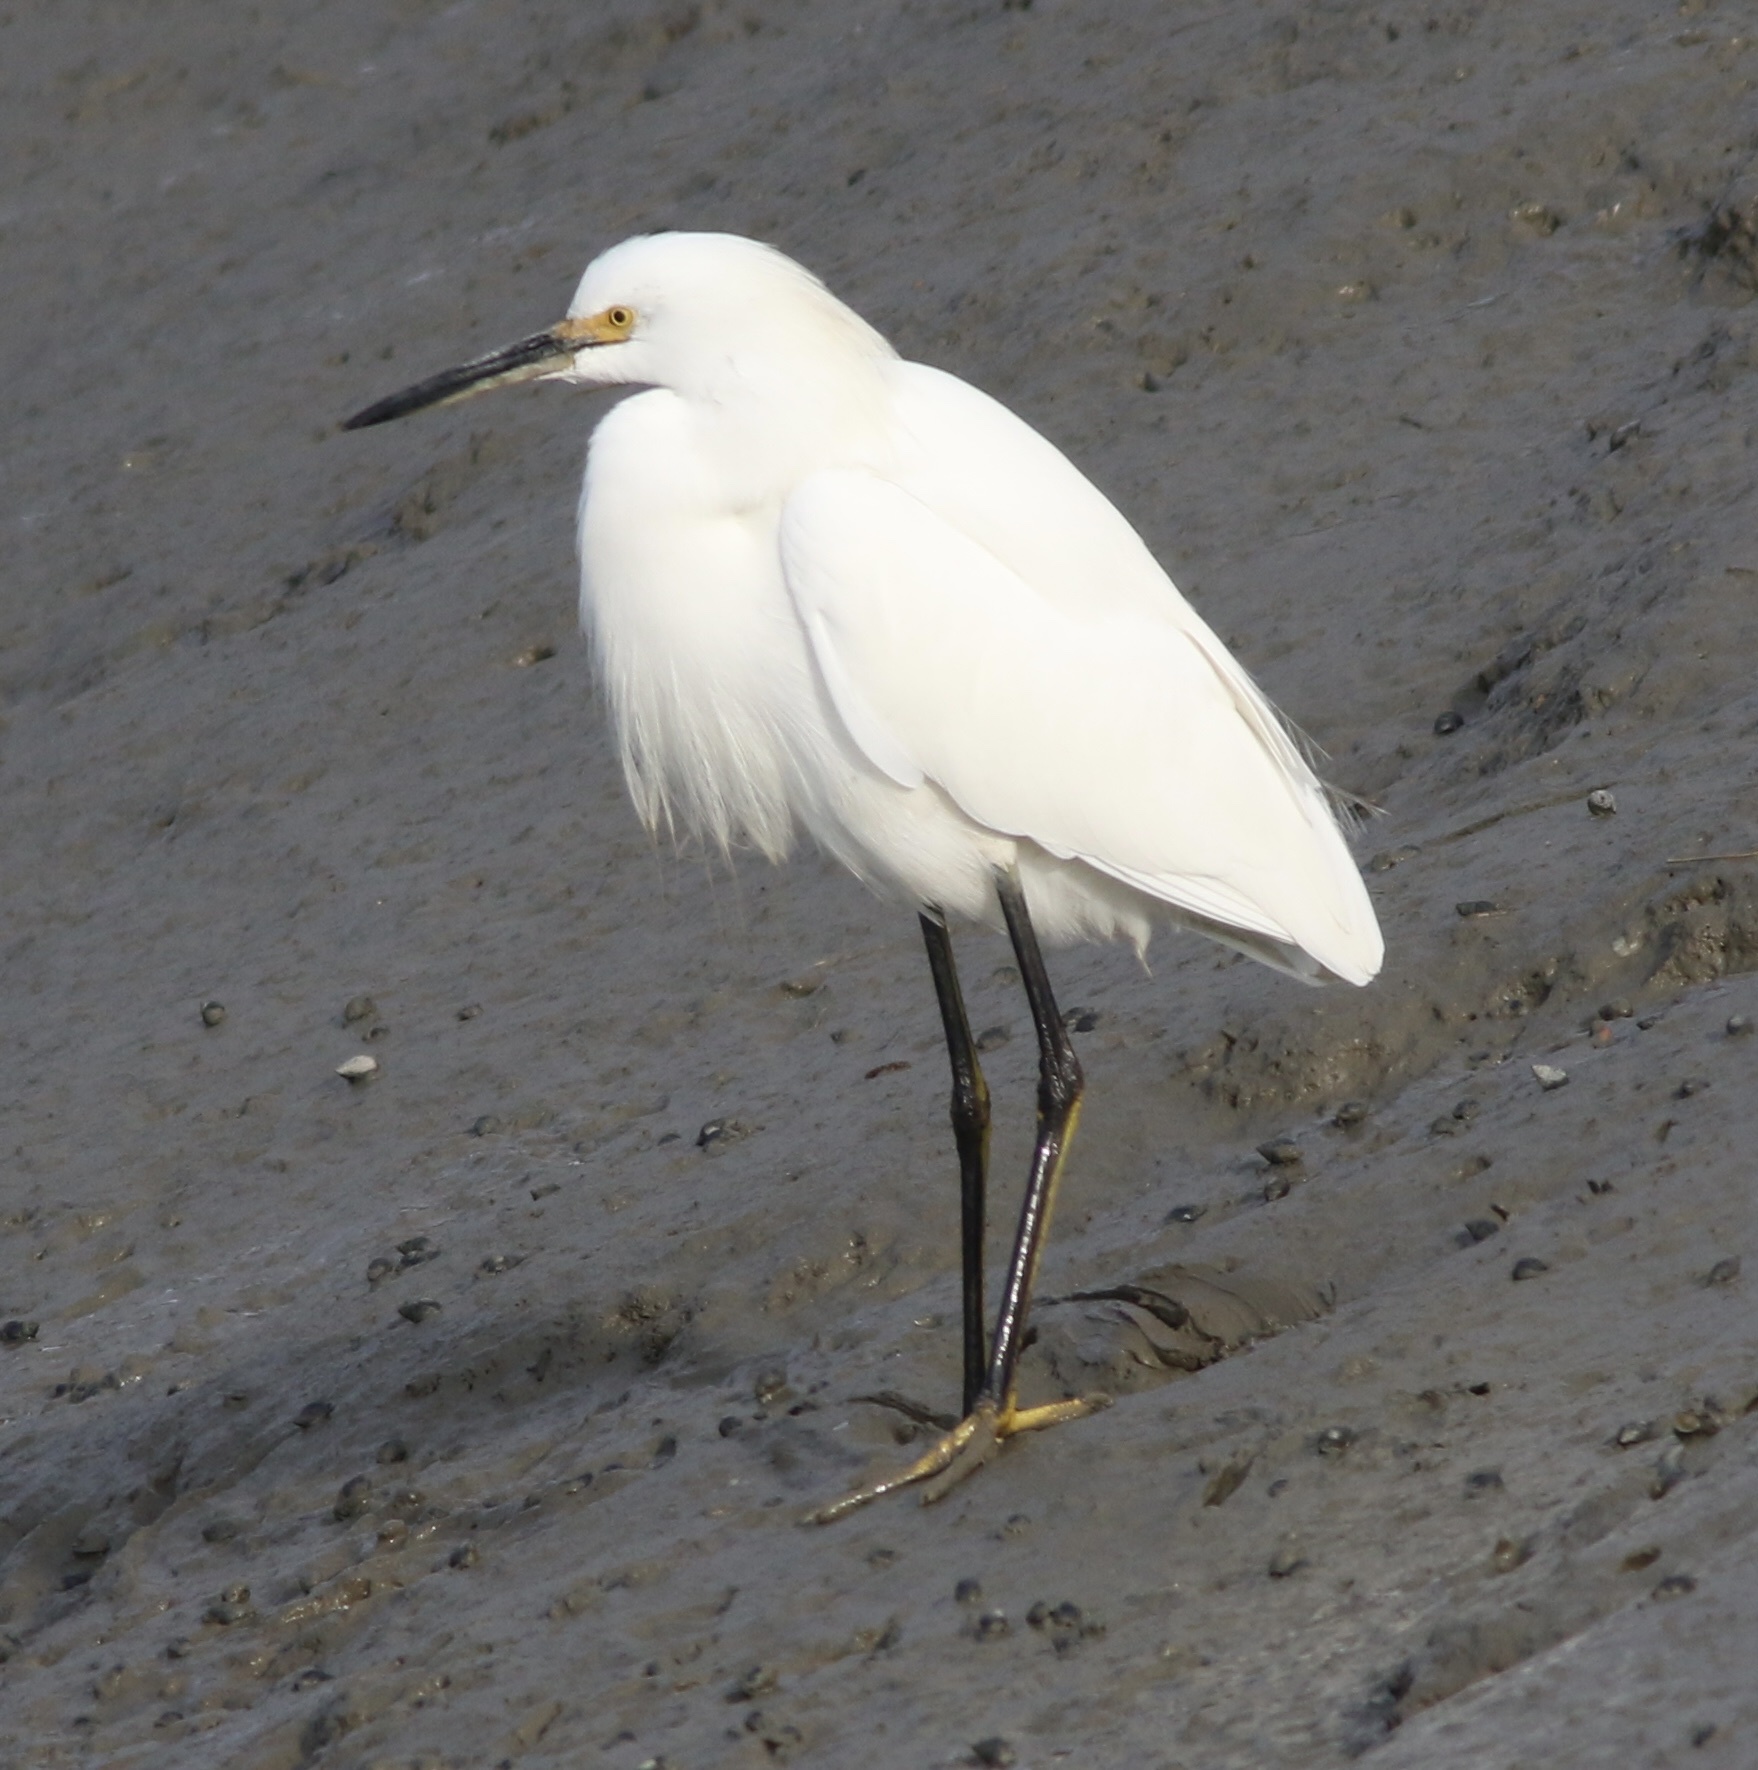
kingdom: Animalia
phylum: Chordata
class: Aves
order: Pelecaniformes
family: Ardeidae
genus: Egretta
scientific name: Egretta thula
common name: Snowy egret
